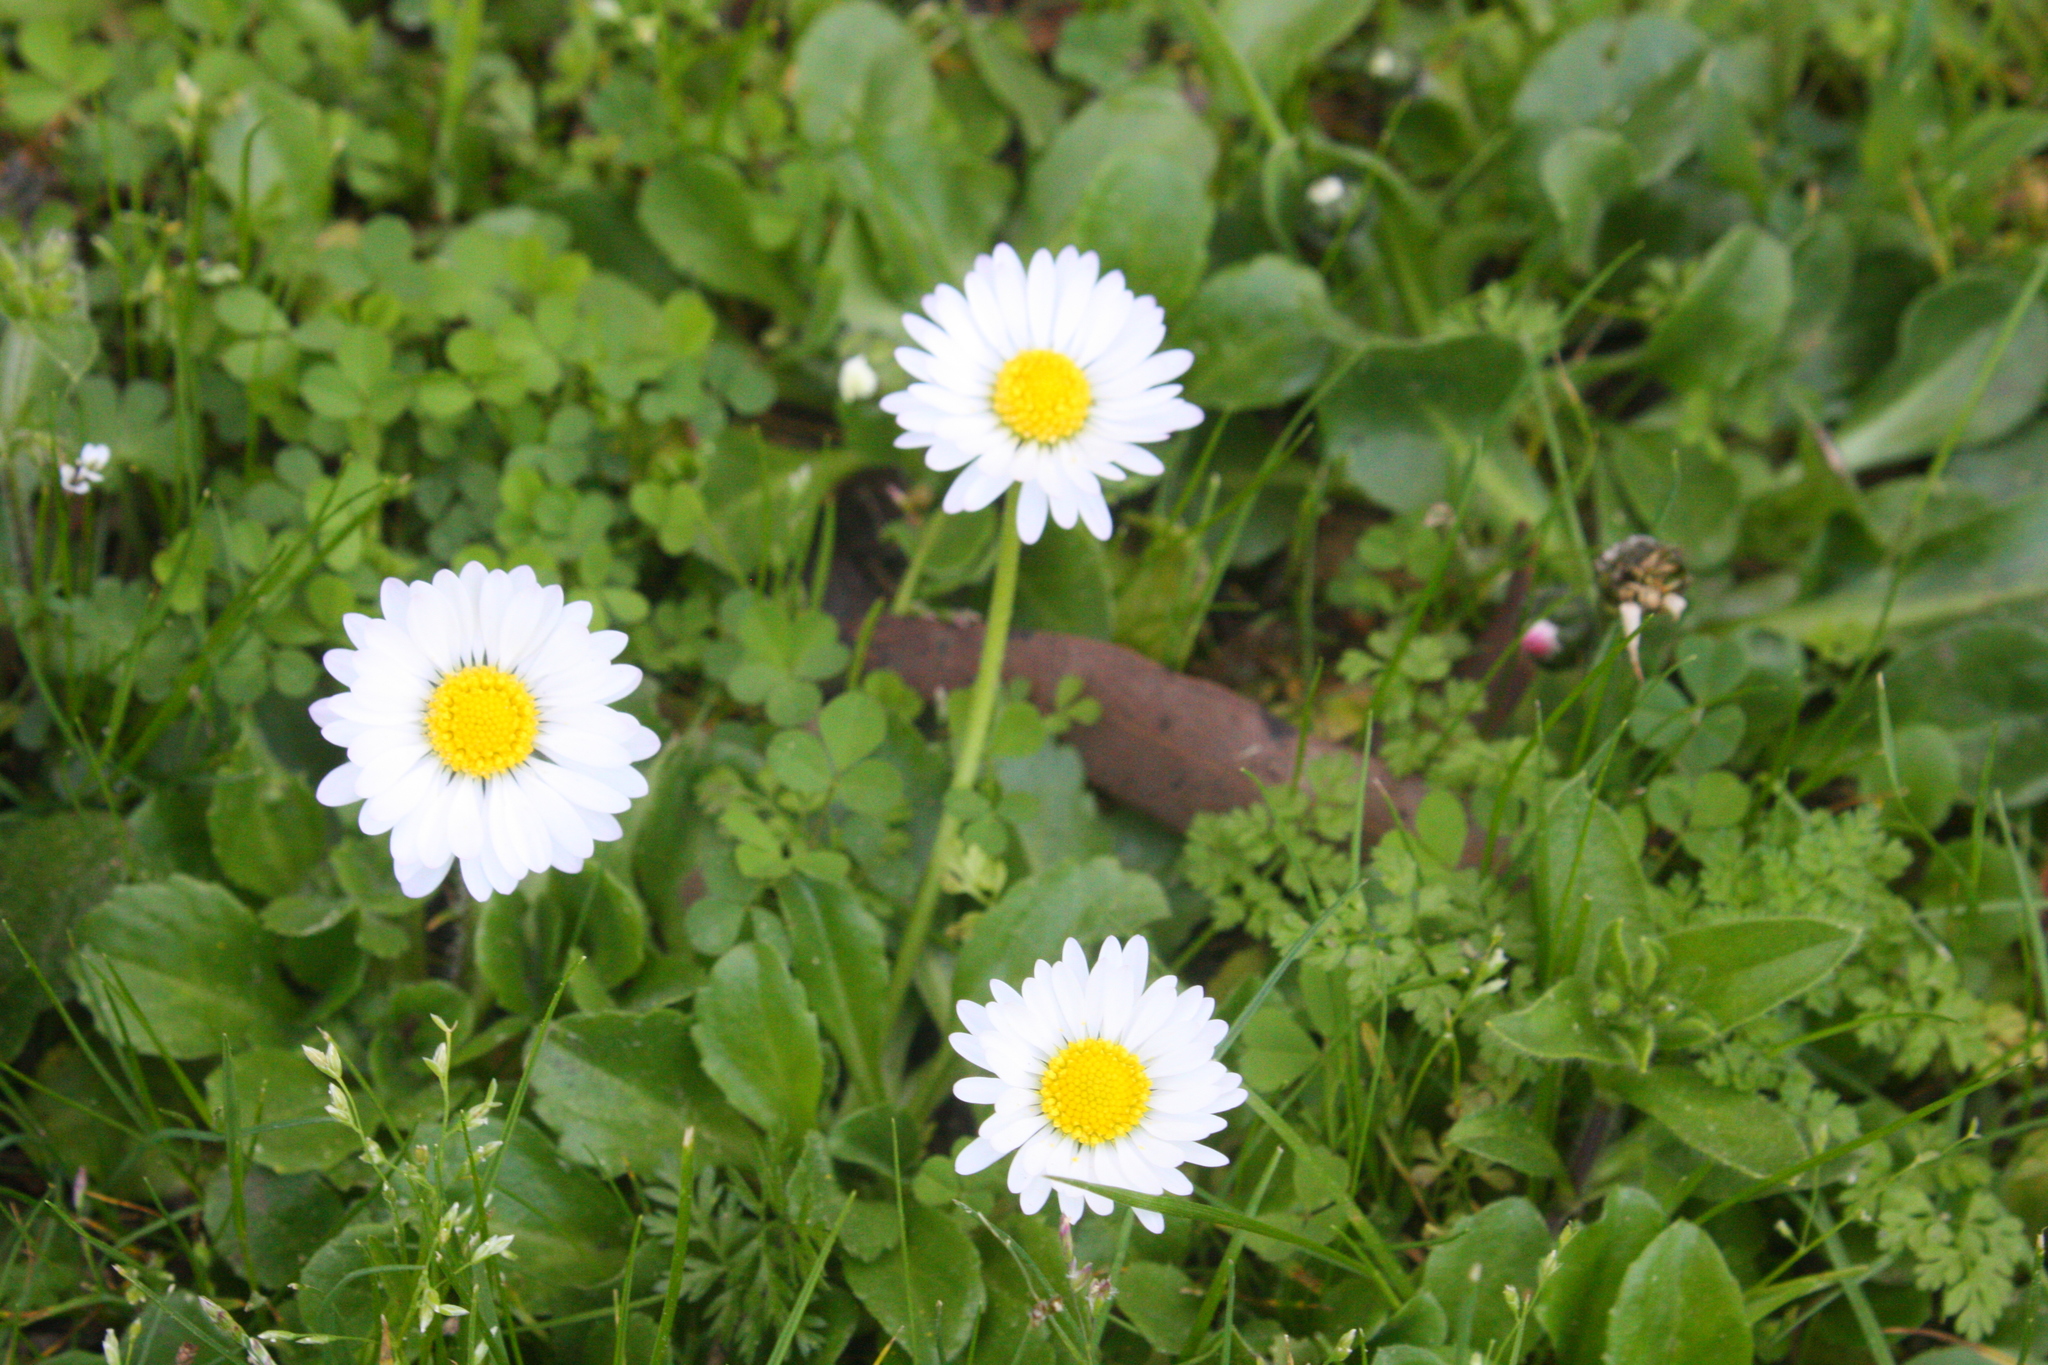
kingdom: Plantae
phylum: Tracheophyta
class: Magnoliopsida
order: Asterales
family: Asteraceae
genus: Bellis
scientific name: Bellis perennis
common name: Lawndaisy
